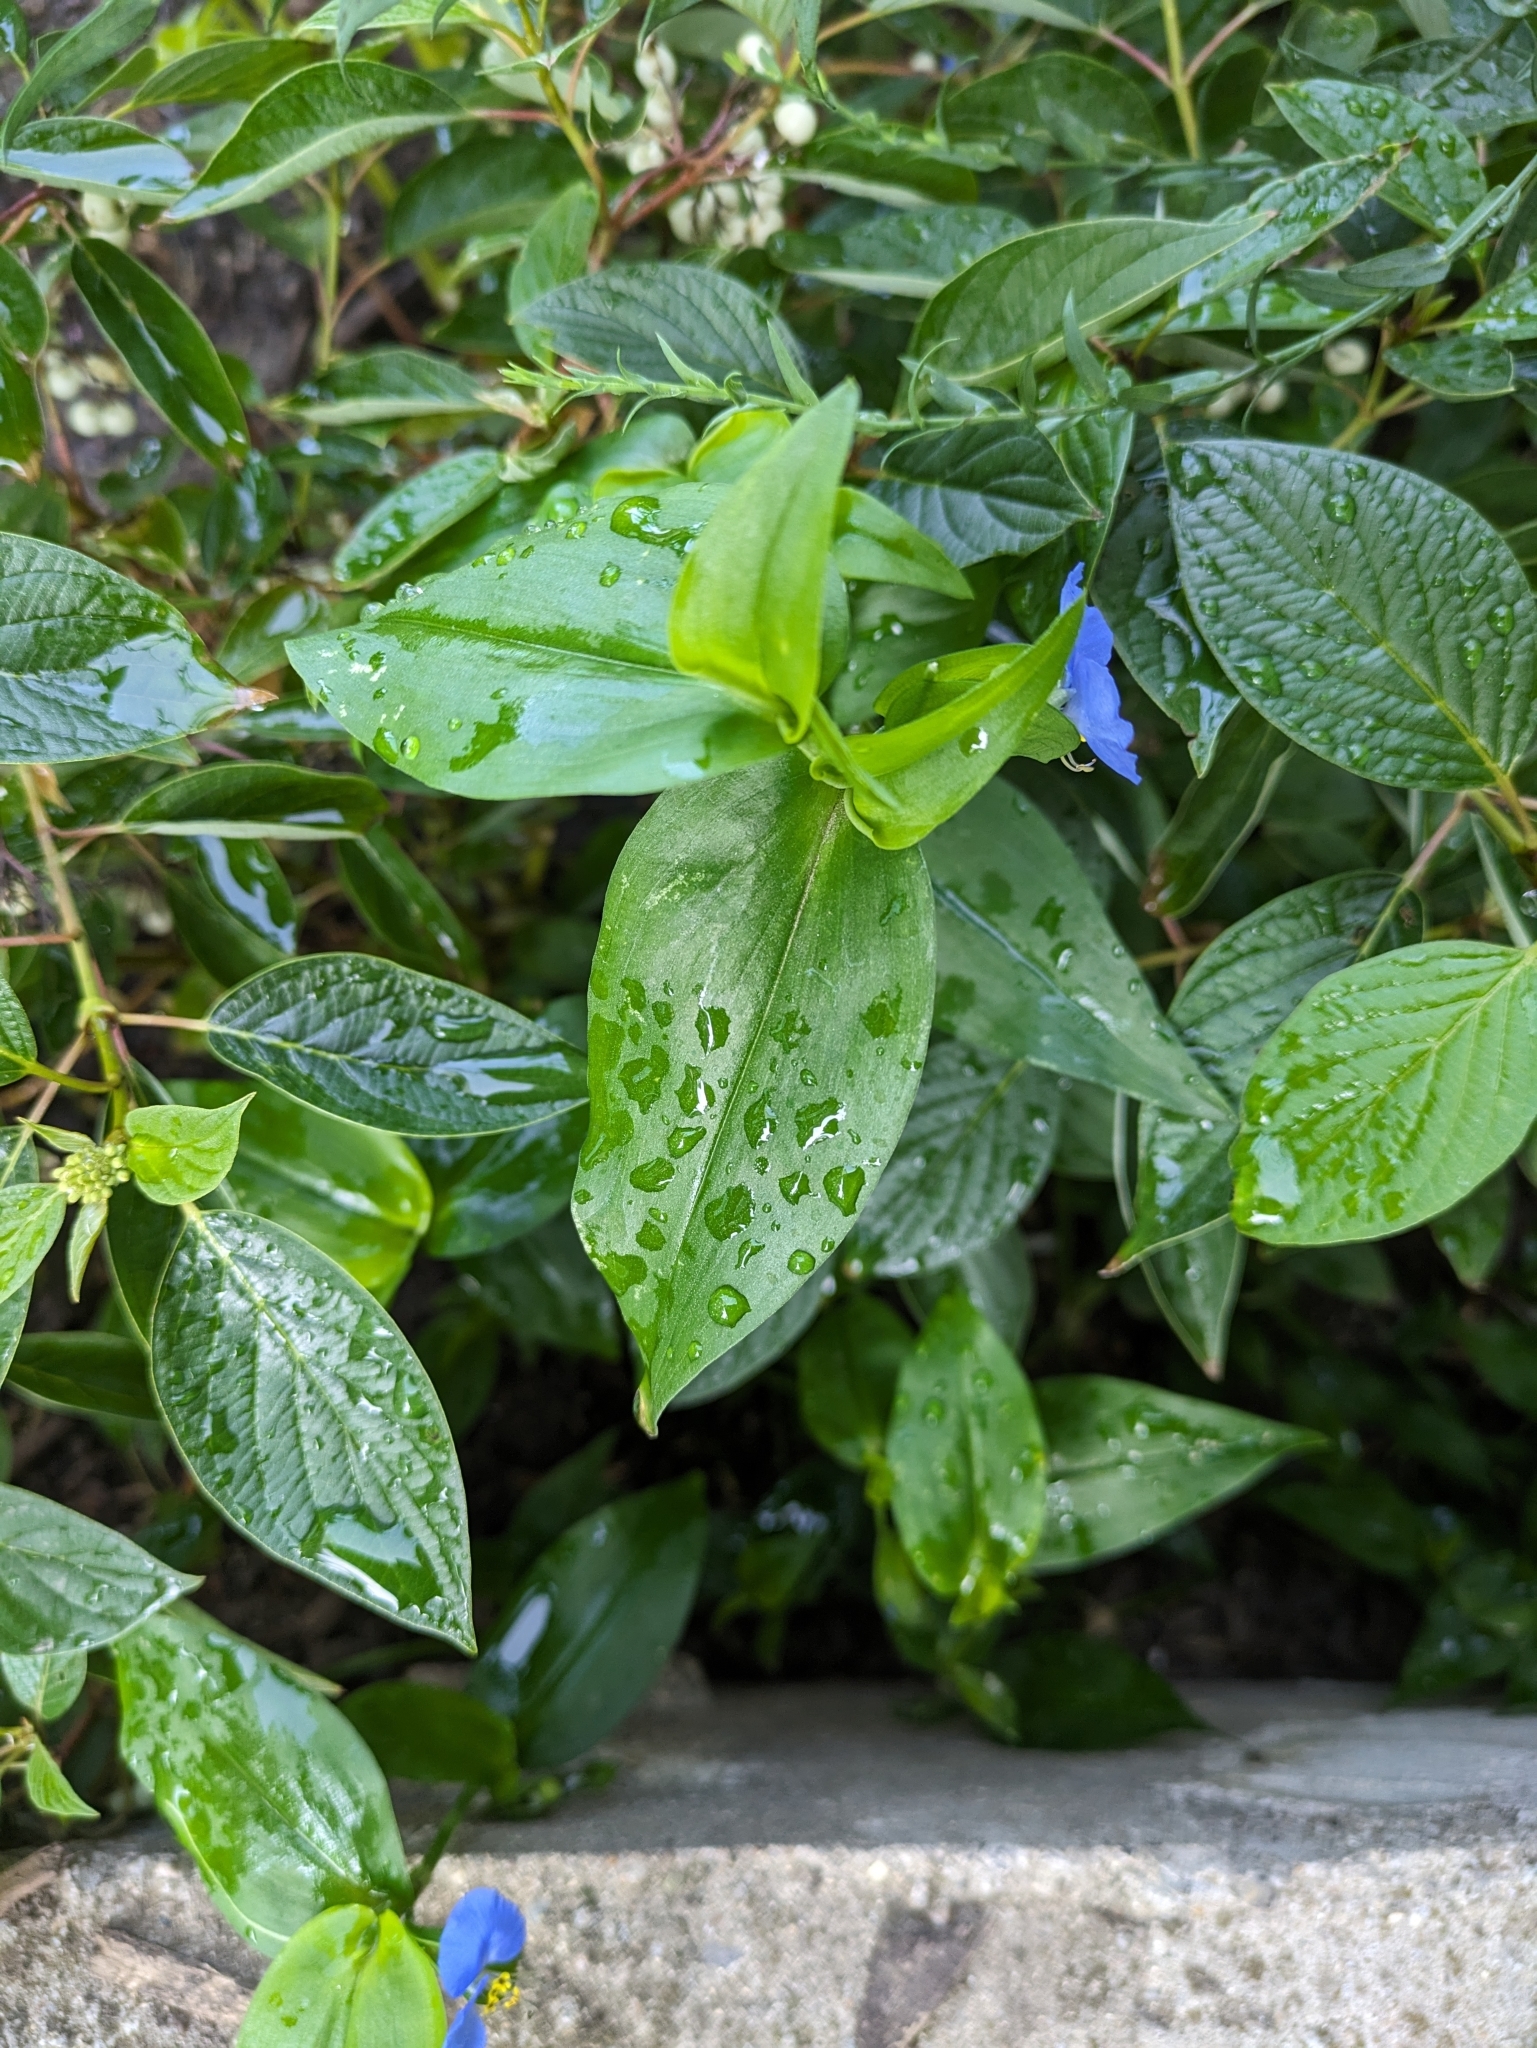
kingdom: Plantae
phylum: Tracheophyta
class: Liliopsida
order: Commelinales
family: Commelinaceae
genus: Commelina
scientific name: Commelina communis
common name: Asiatic dayflower
